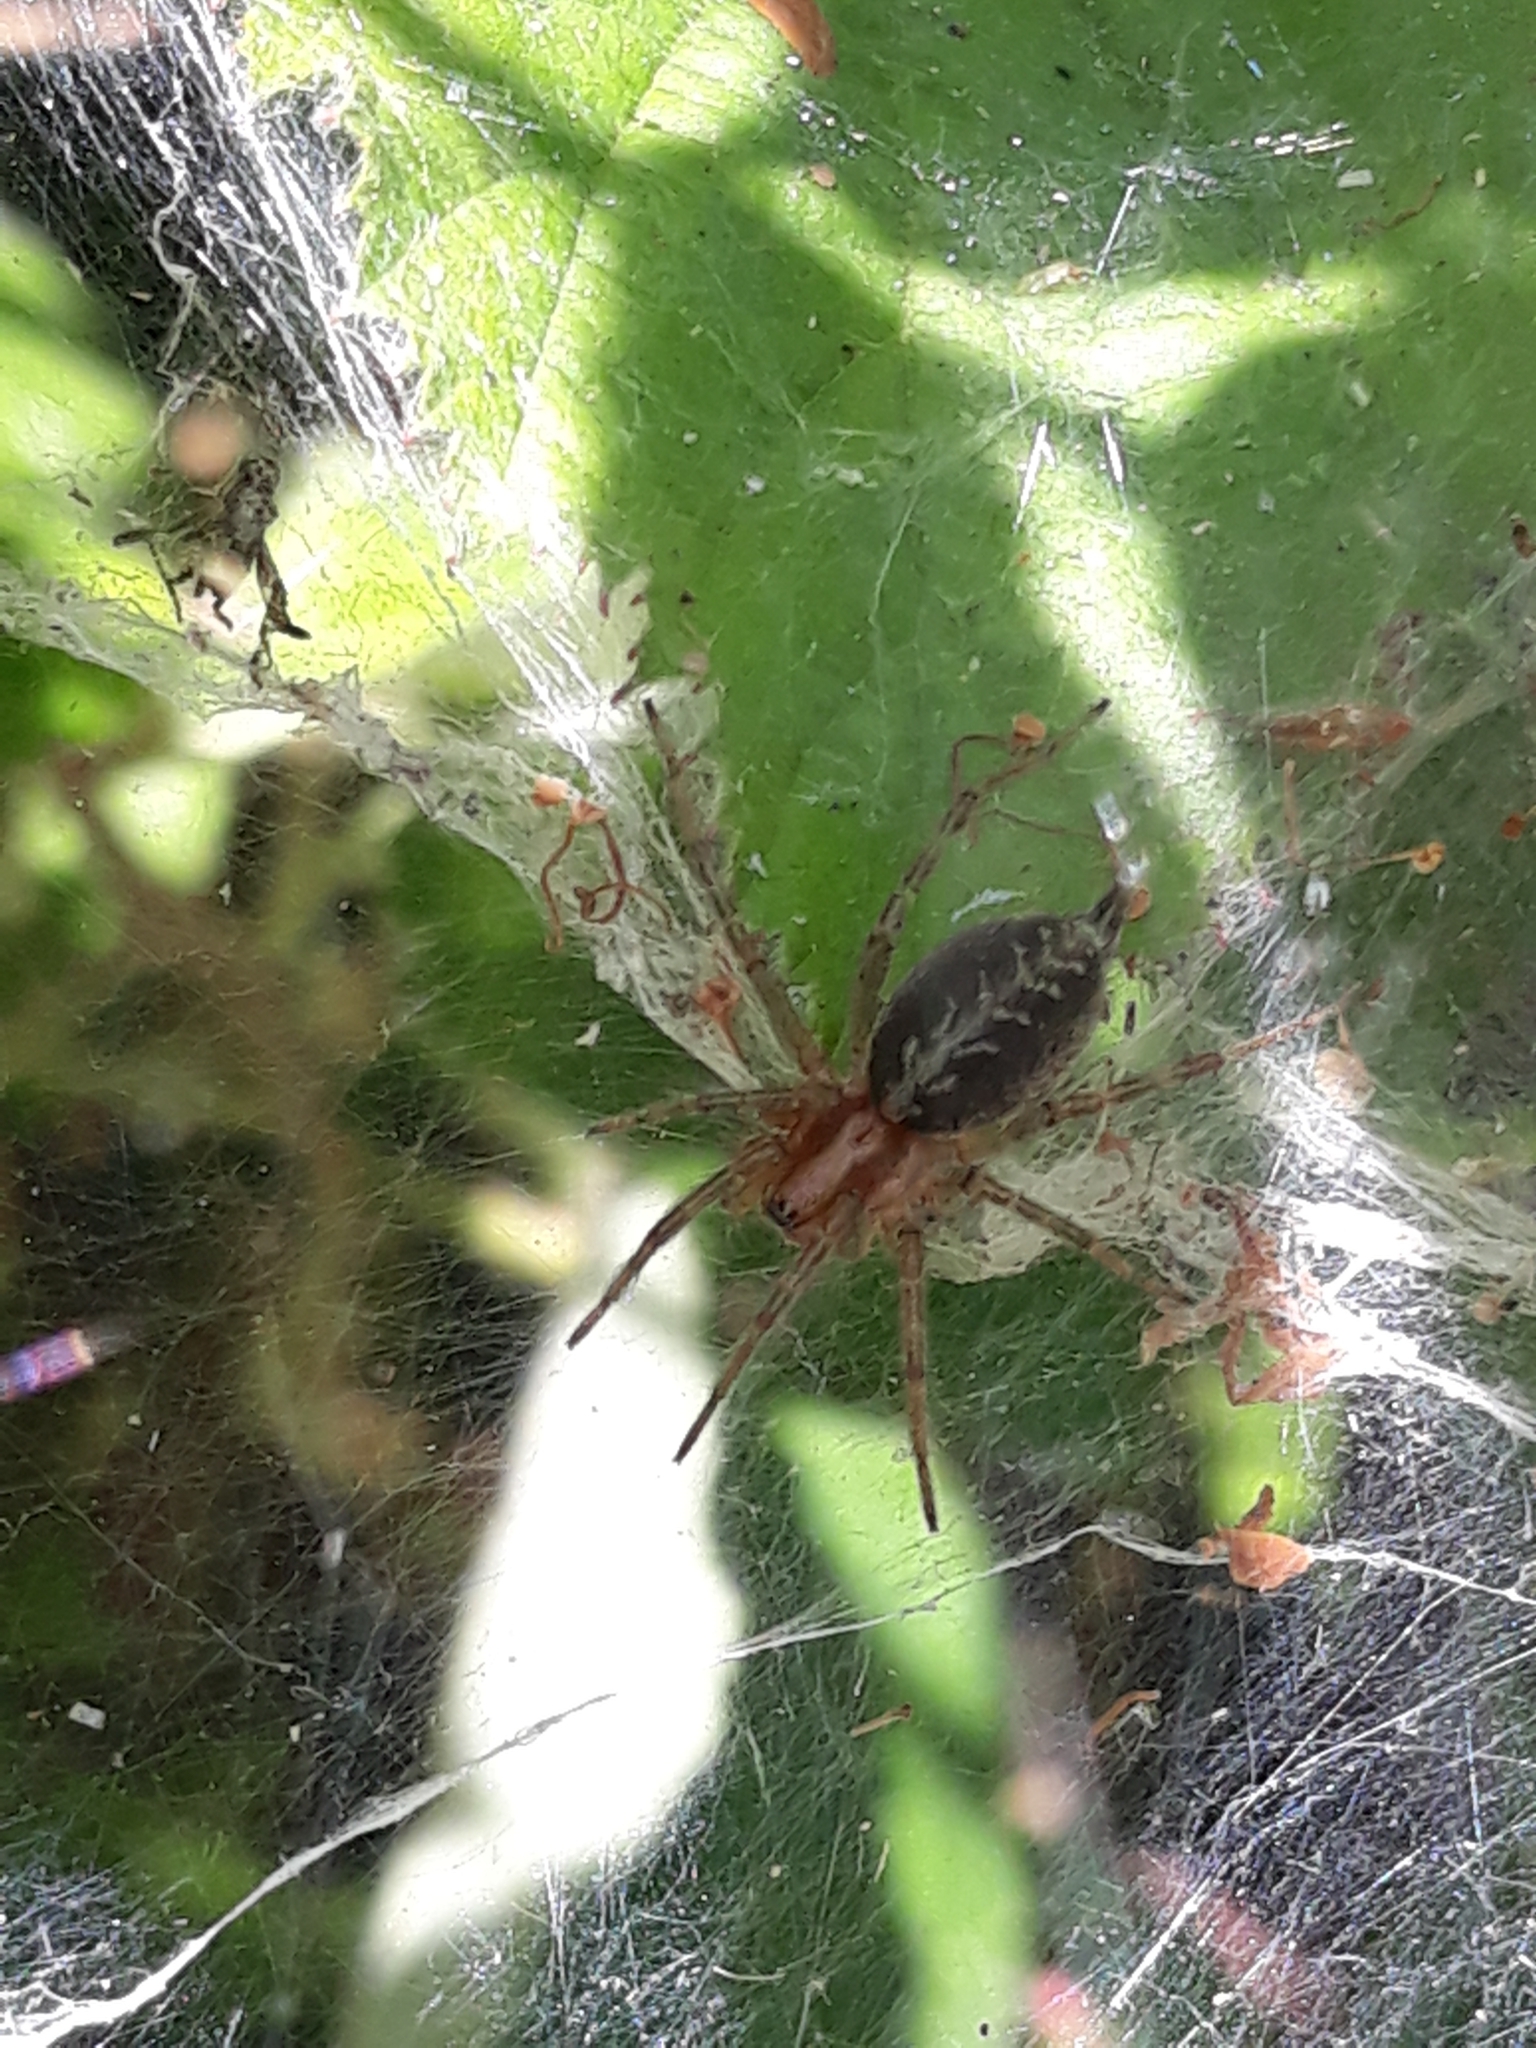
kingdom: Animalia
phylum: Arthropoda
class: Arachnida
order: Araneae
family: Agelenidae
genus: Agelena
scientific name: Agelena labyrinthica
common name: Labyrinth spider
